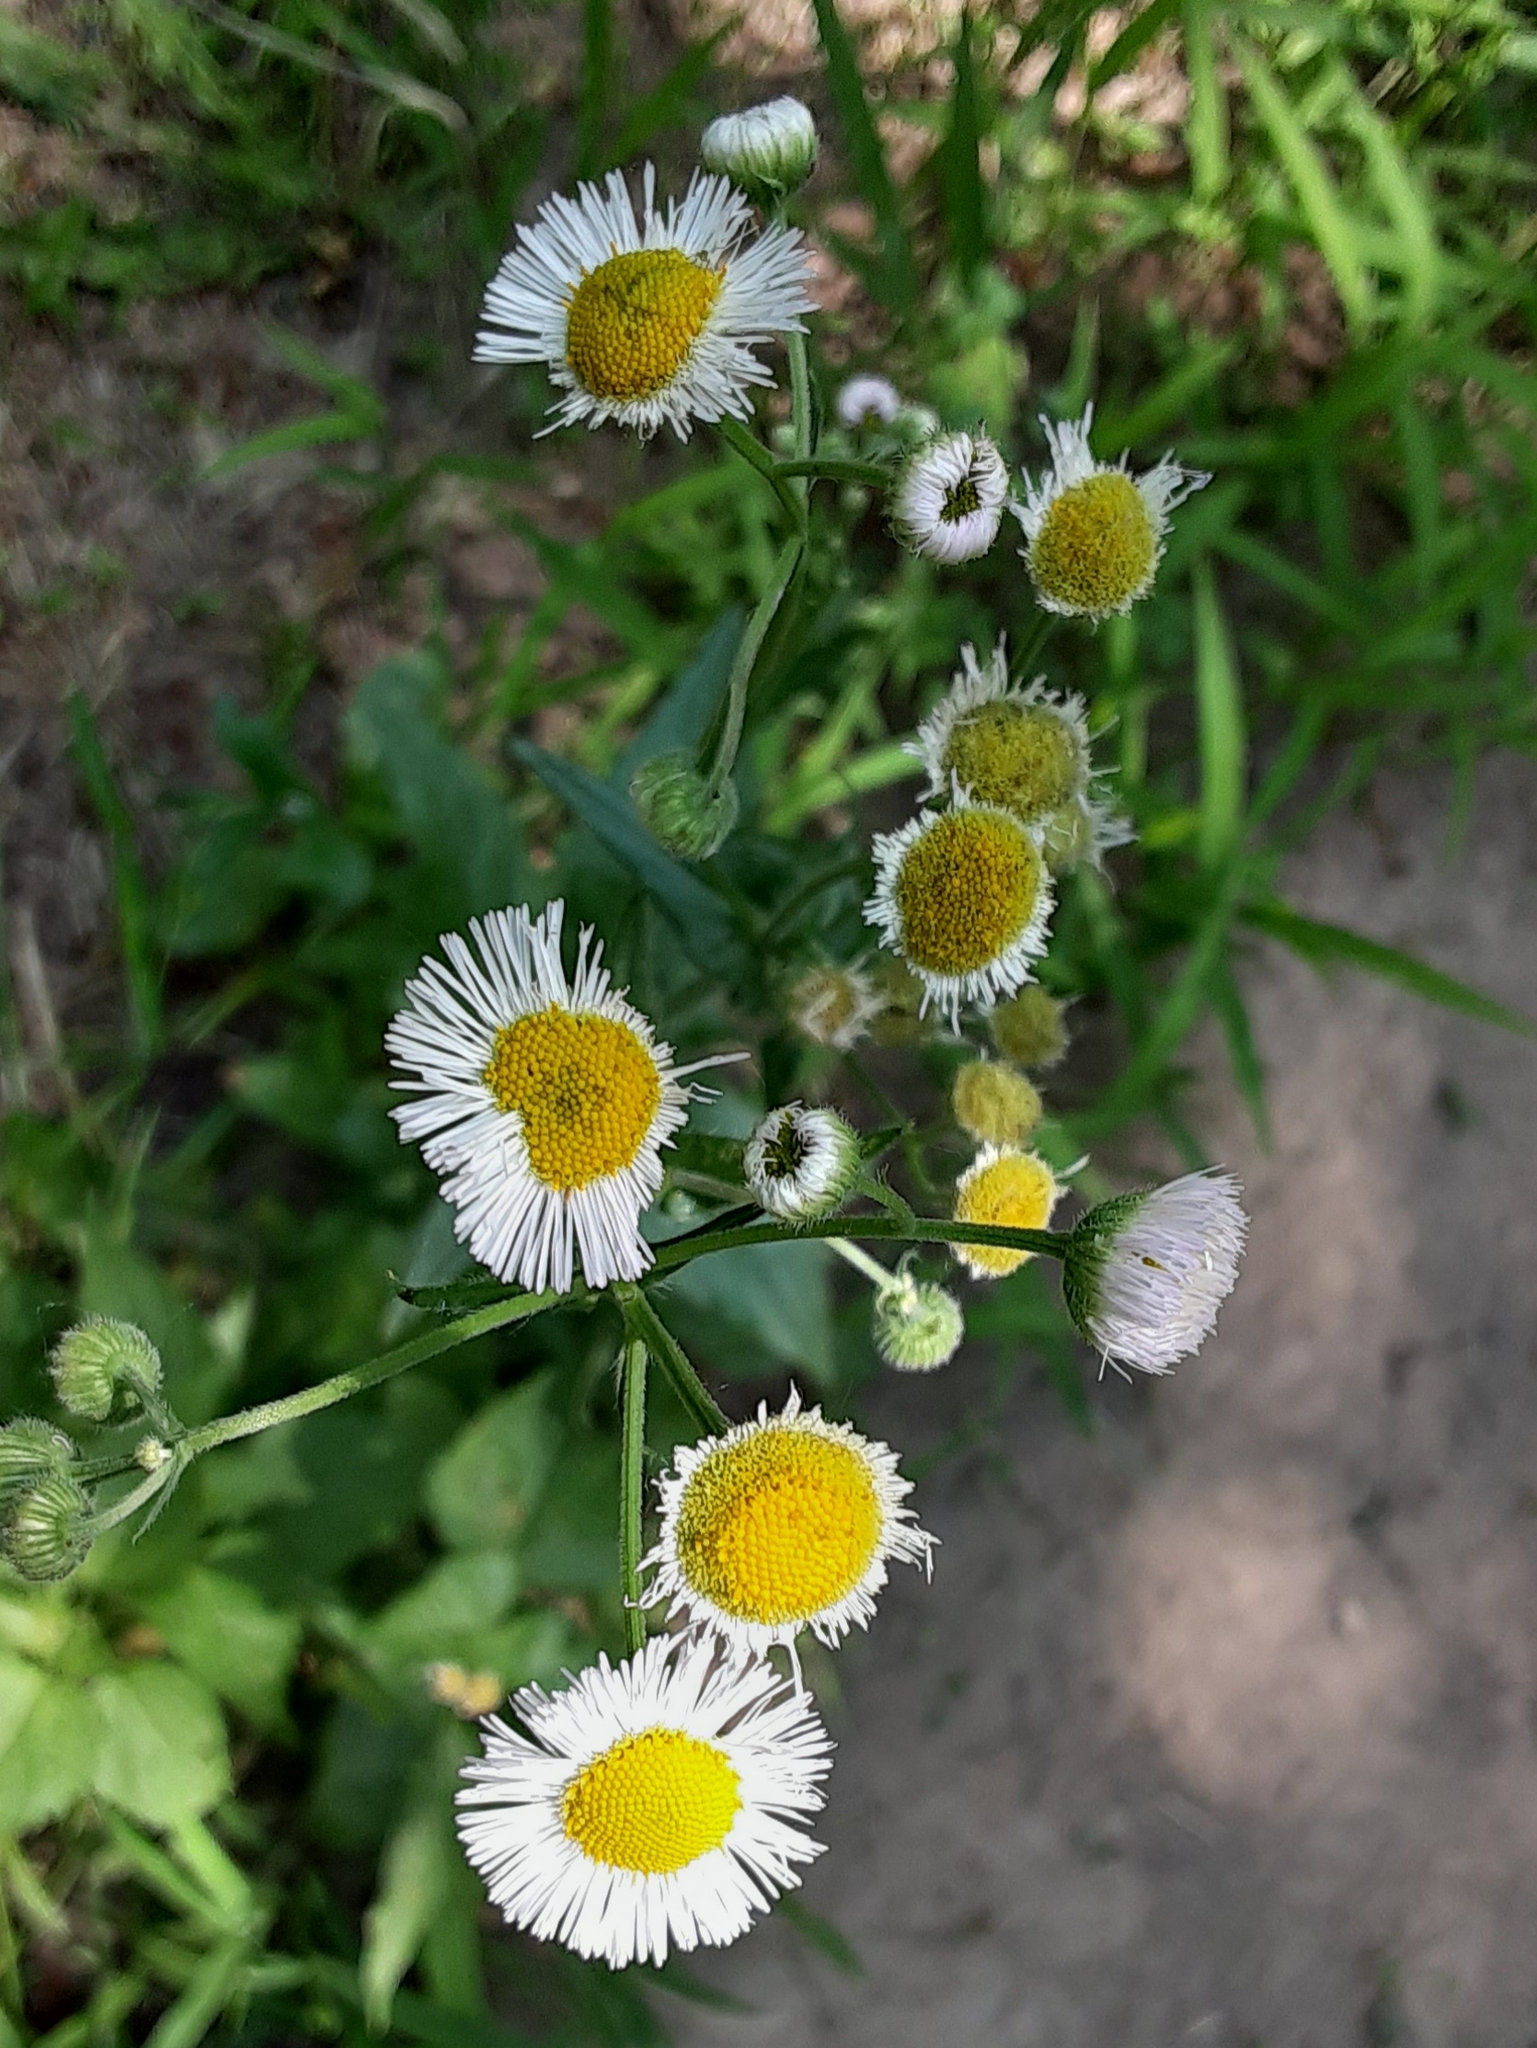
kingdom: Plantae
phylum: Tracheophyta
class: Magnoliopsida
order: Asterales
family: Asteraceae
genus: Erigeron
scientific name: Erigeron philadelphicus
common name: Robin's-plantain
